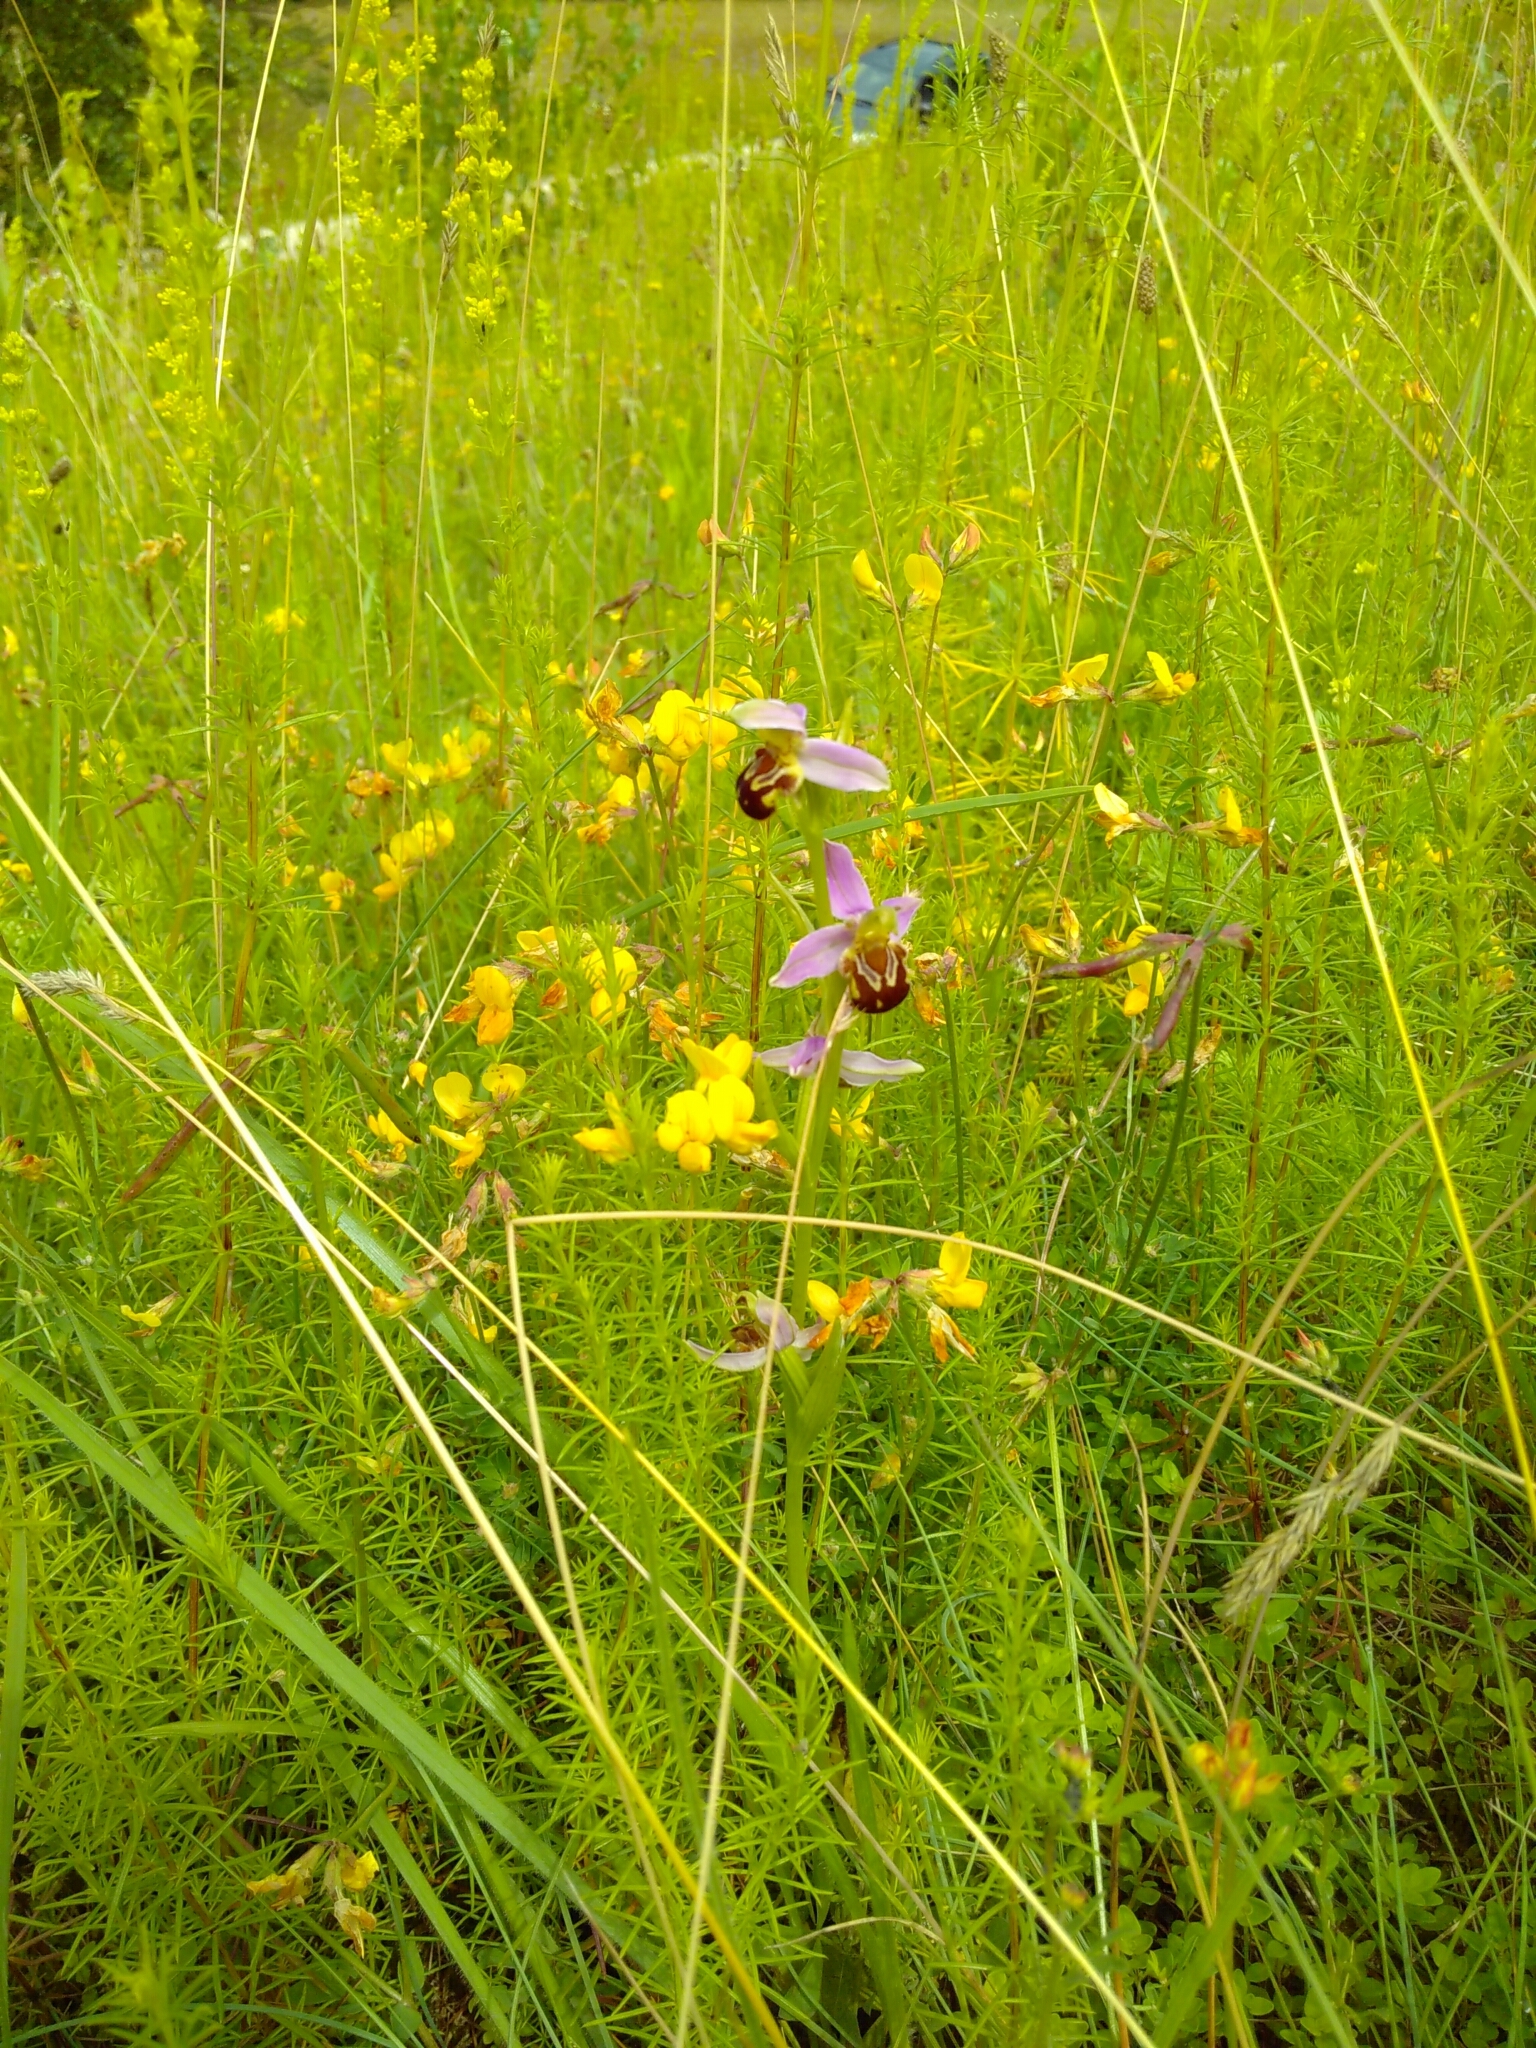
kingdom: Plantae
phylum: Tracheophyta
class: Liliopsida
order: Asparagales
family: Orchidaceae
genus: Ophrys
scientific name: Ophrys apifera
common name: Bee orchid
